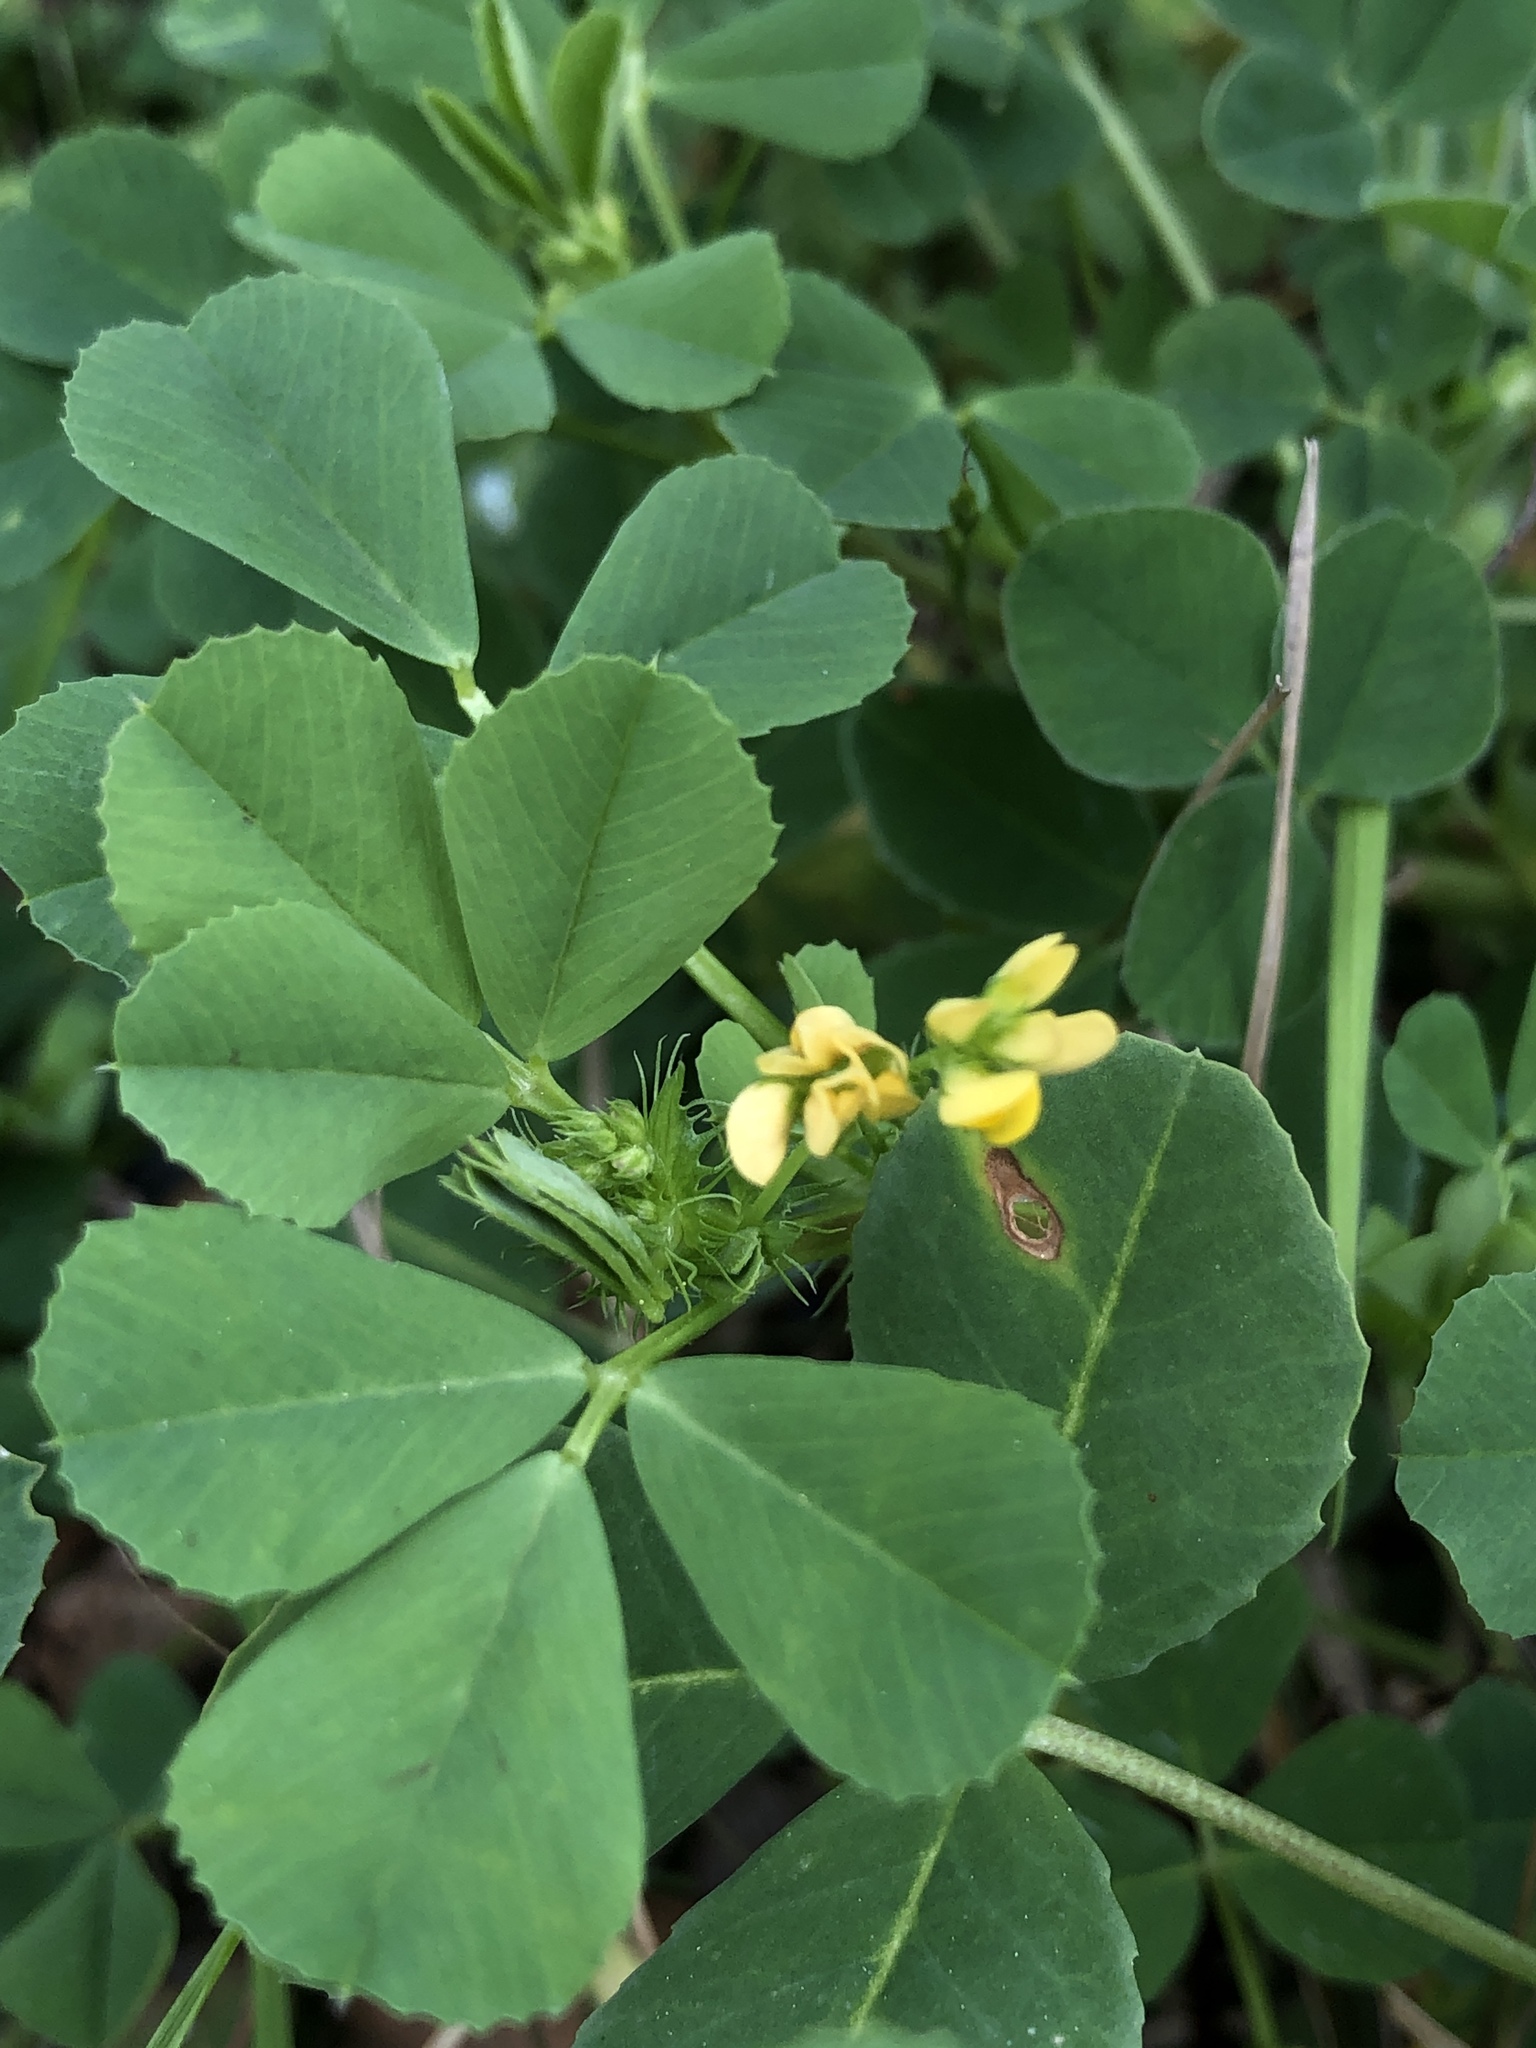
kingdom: Plantae
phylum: Tracheophyta
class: Magnoliopsida
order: Fabales
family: Fabaceae
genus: Medicago
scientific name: Medicago polymorpha
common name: Burclover
